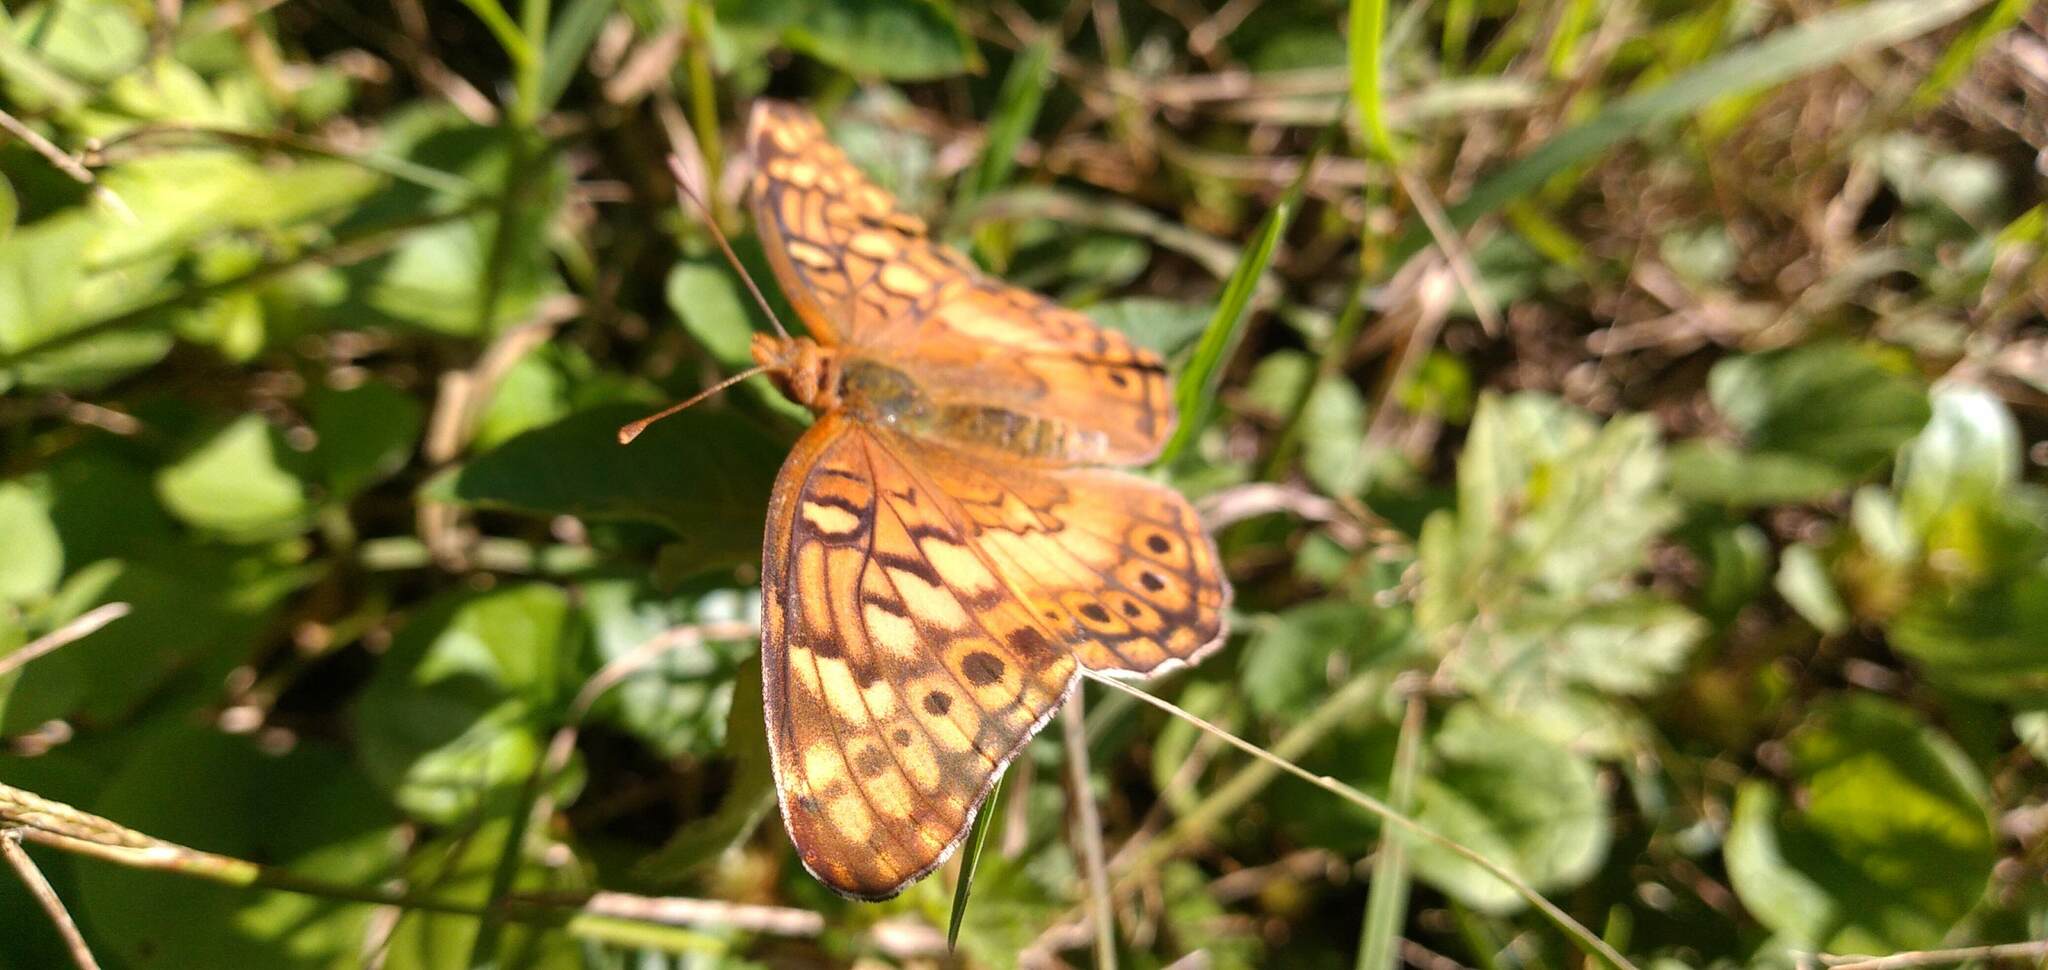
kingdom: Animalia
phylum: Arthropoda
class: Insecta
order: Lepidoptera
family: Nymphalidae
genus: Euptoieta
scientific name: Euptoieta hortensia
